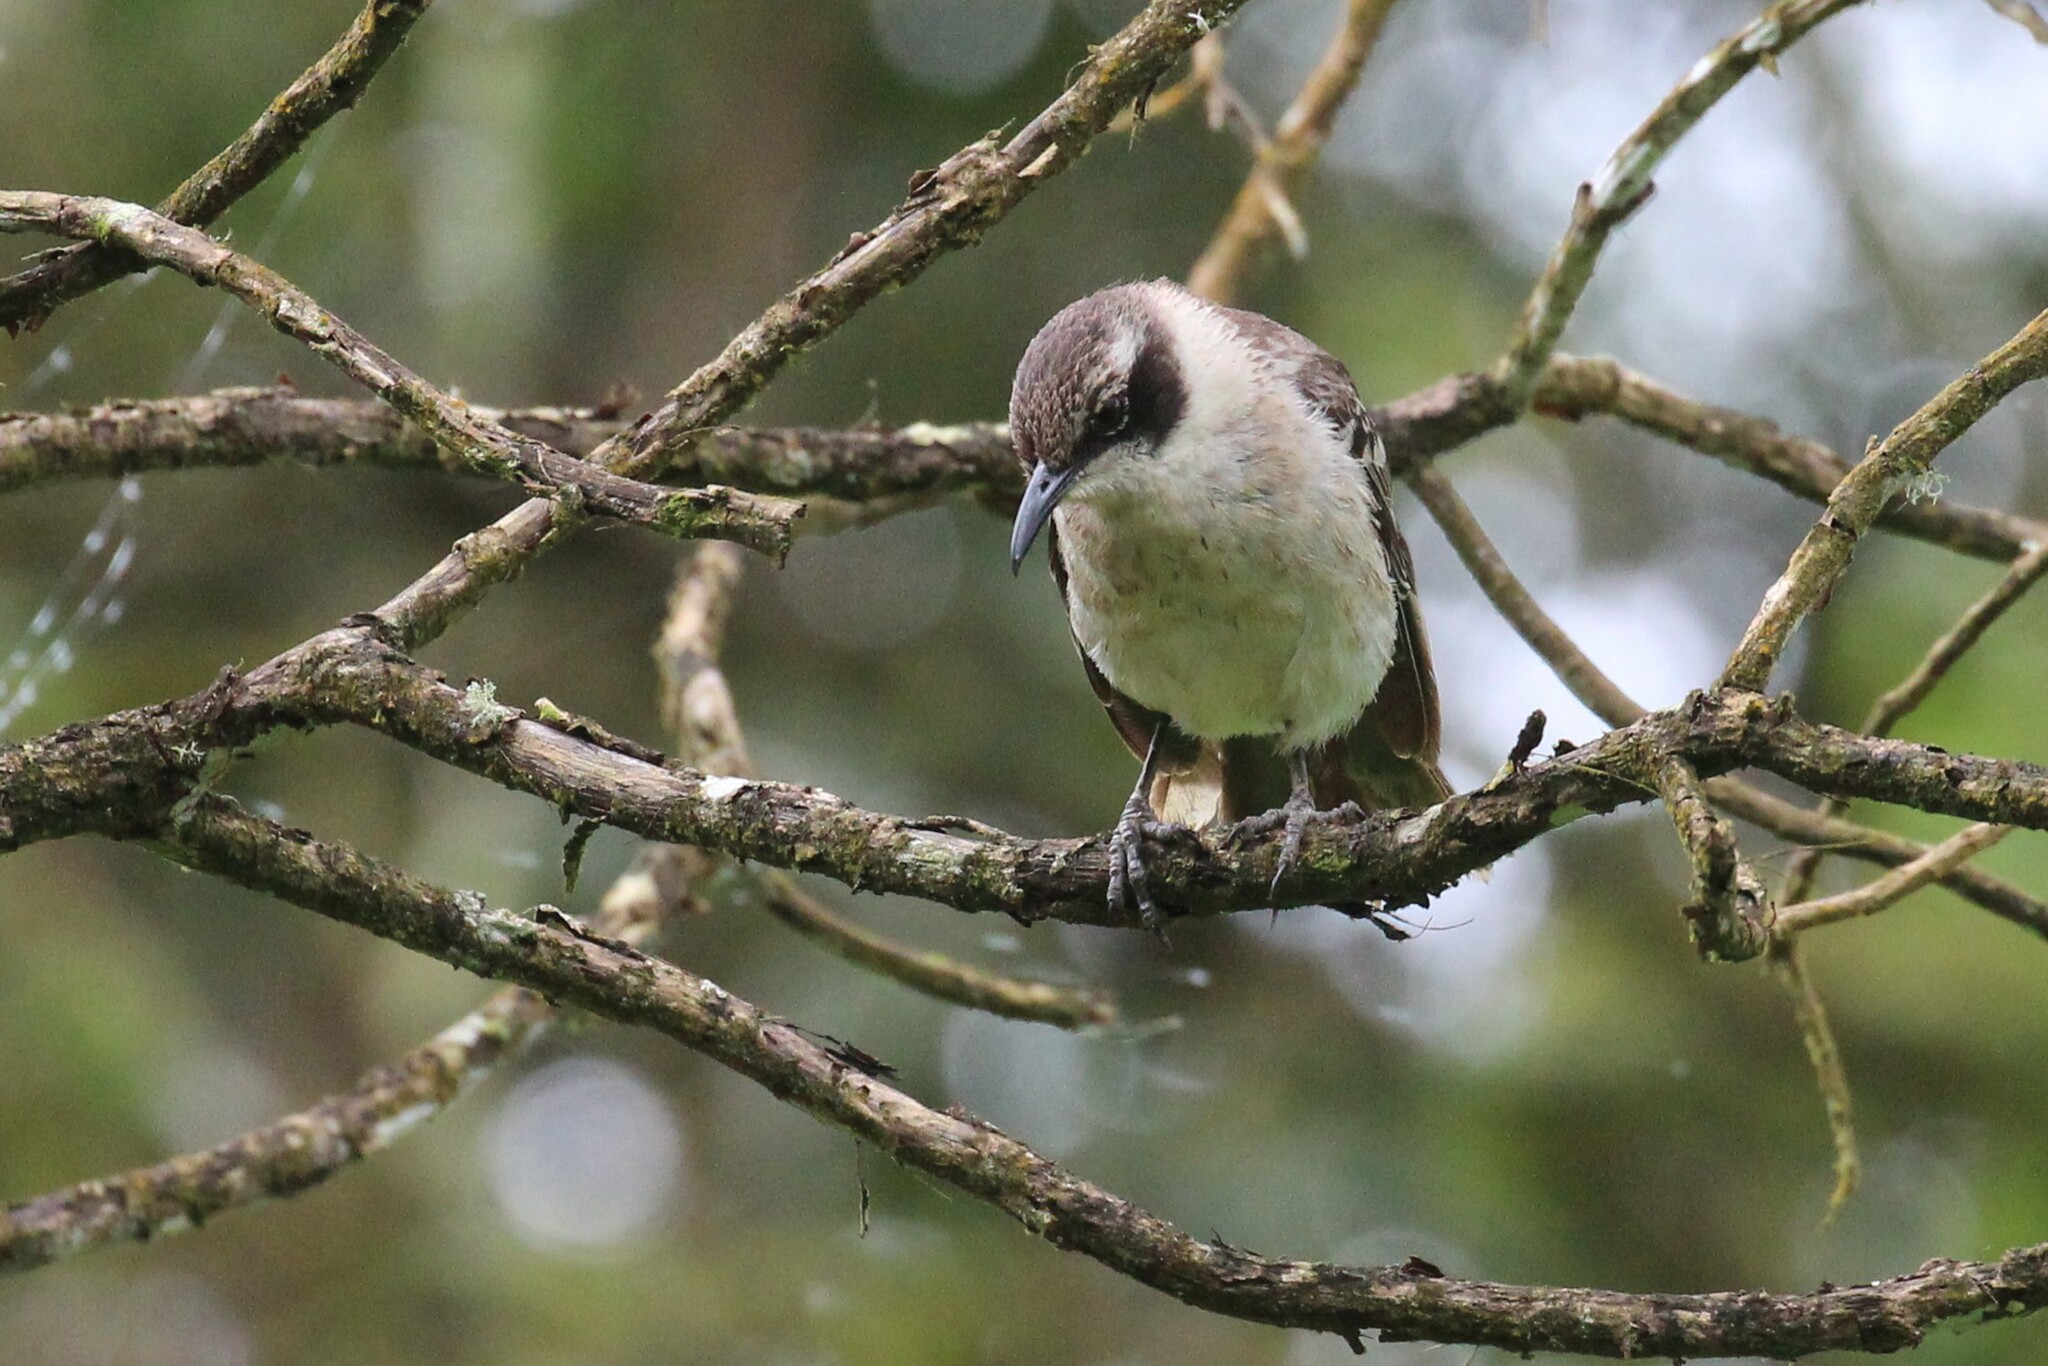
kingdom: Animalia
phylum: Chordata
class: Aves
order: Passeriformes
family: Mimidae
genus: Mimus
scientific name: Mimus parvulus
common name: Galapagos mockingbird
